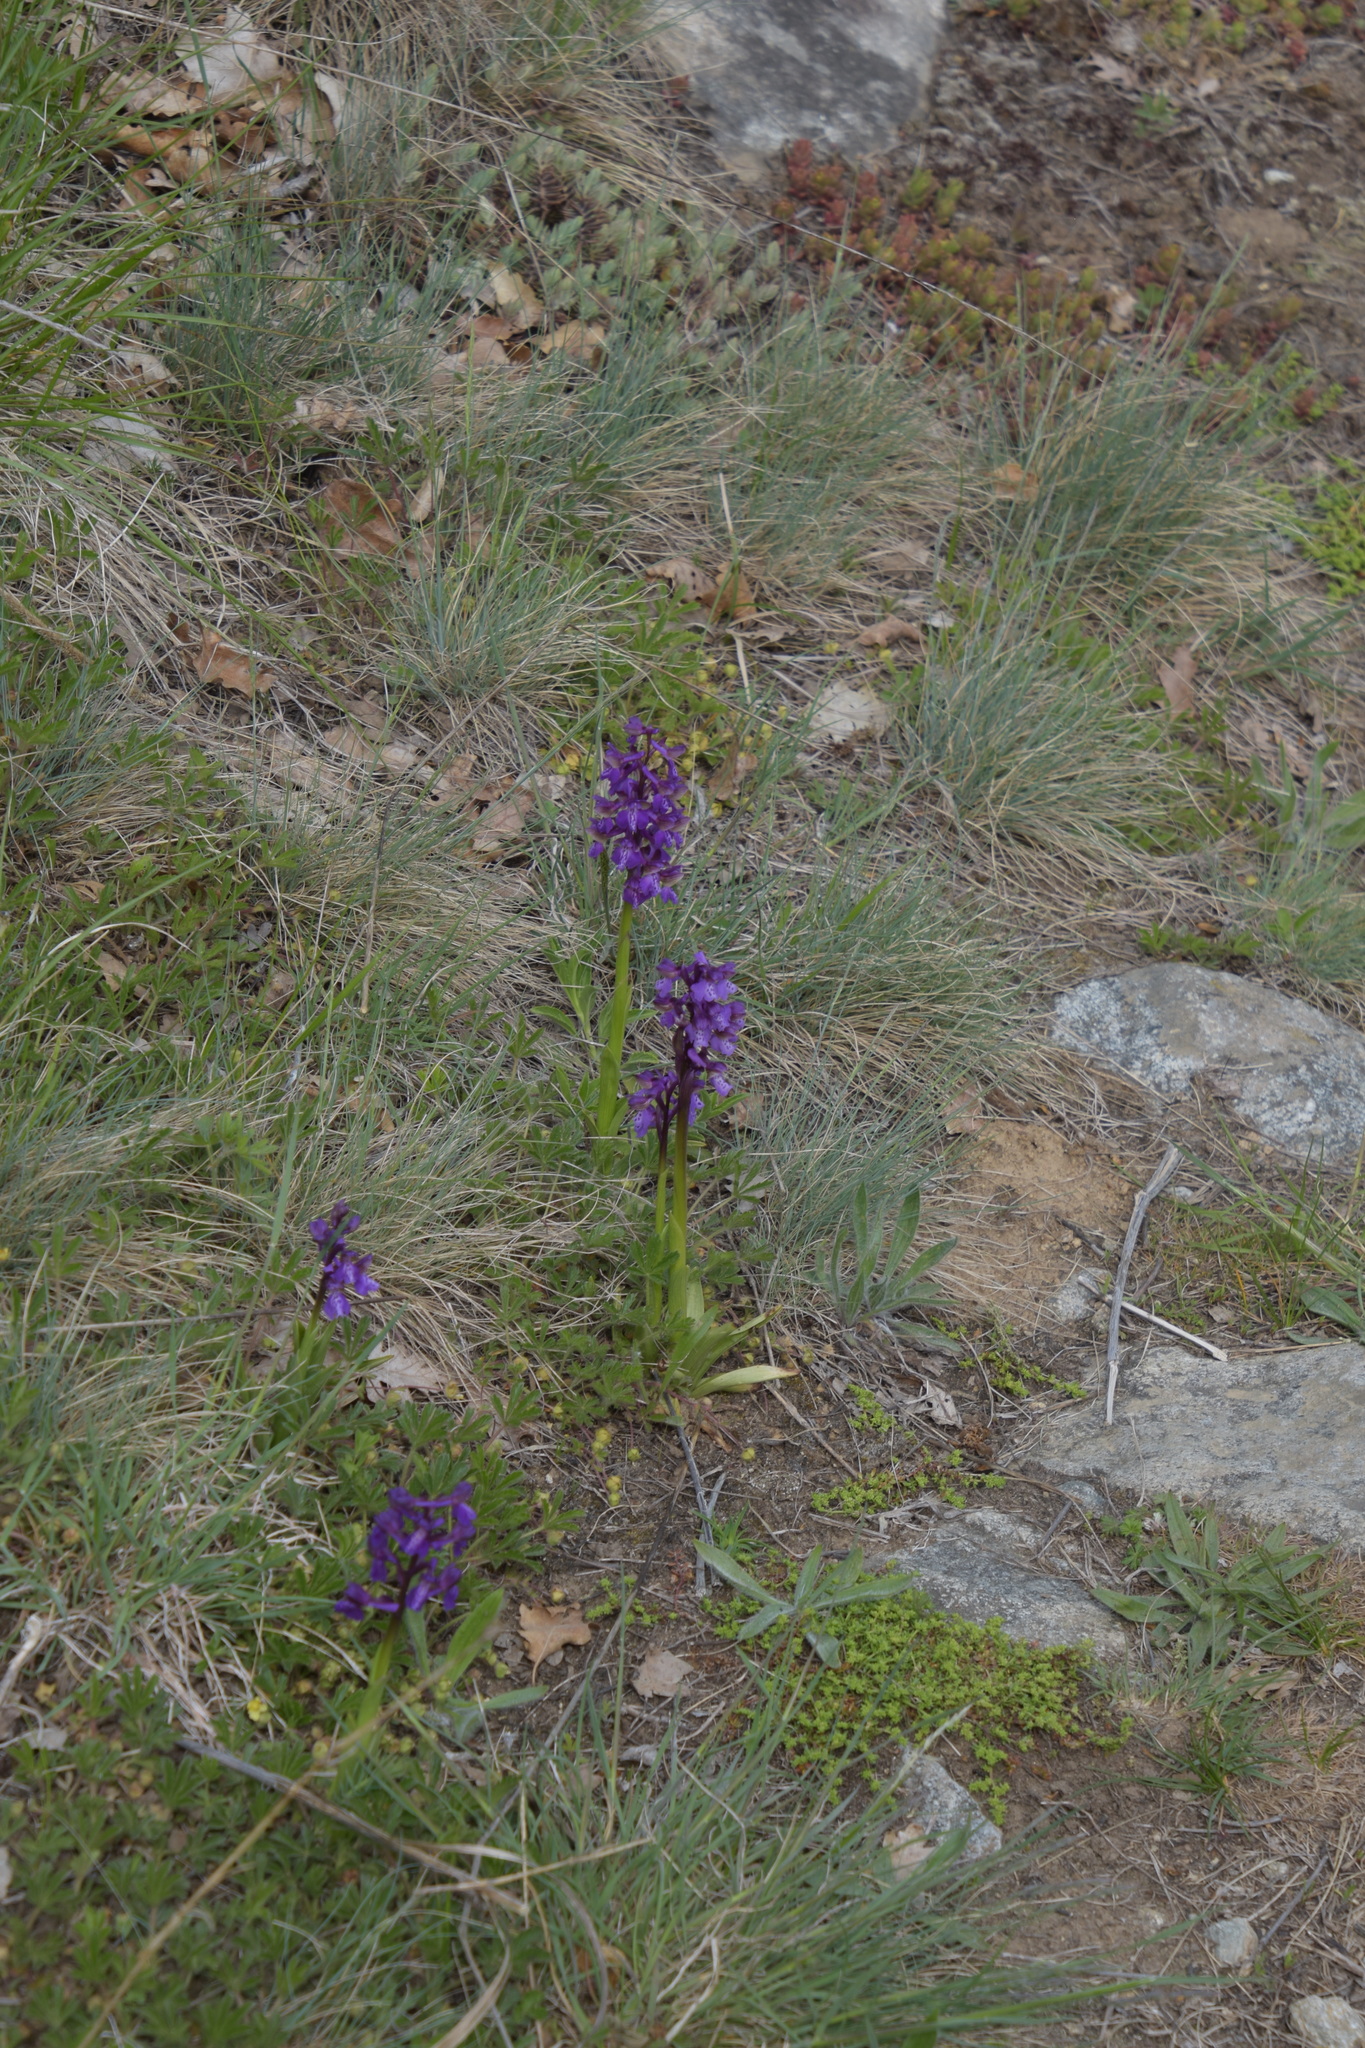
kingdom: Plantae
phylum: Tracheophyta
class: Liliopsida
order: Asparagales
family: Orchidaceae
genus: Anacamptis
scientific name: Anacamptis morio
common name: Green-winged orchid
